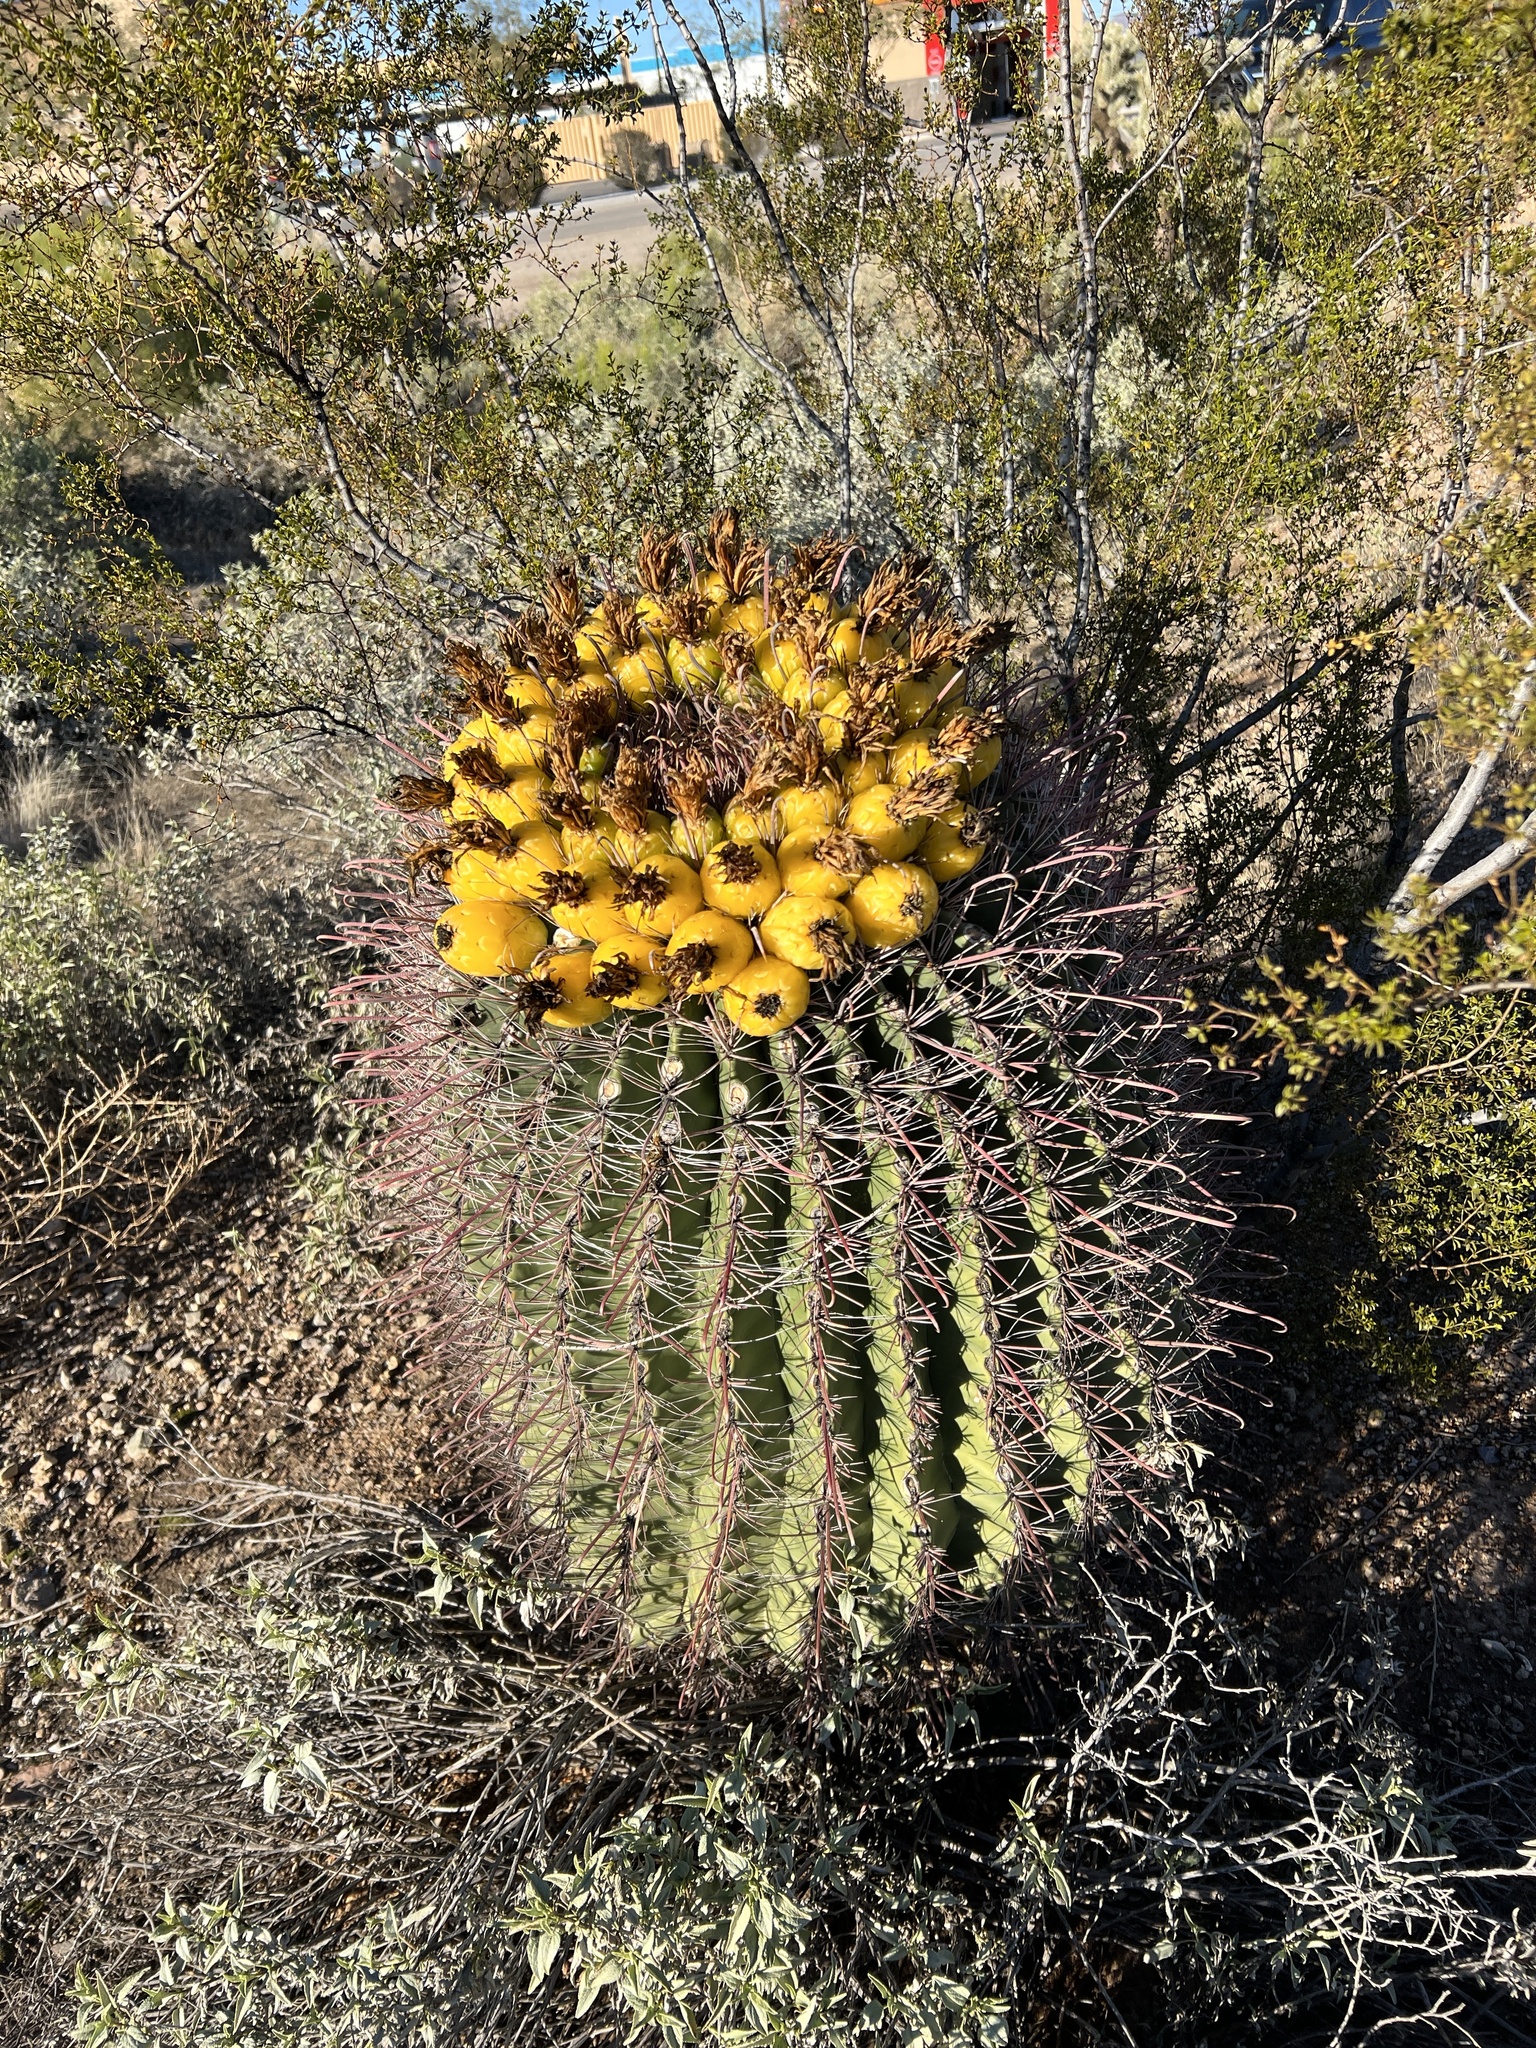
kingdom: Plantae
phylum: Tracheophyta
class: Magnoliopsida
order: Caryophyllales
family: Cactaceae
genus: Ferocactus
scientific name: Ferocactus wislizeni
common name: Candy barrel cactus
